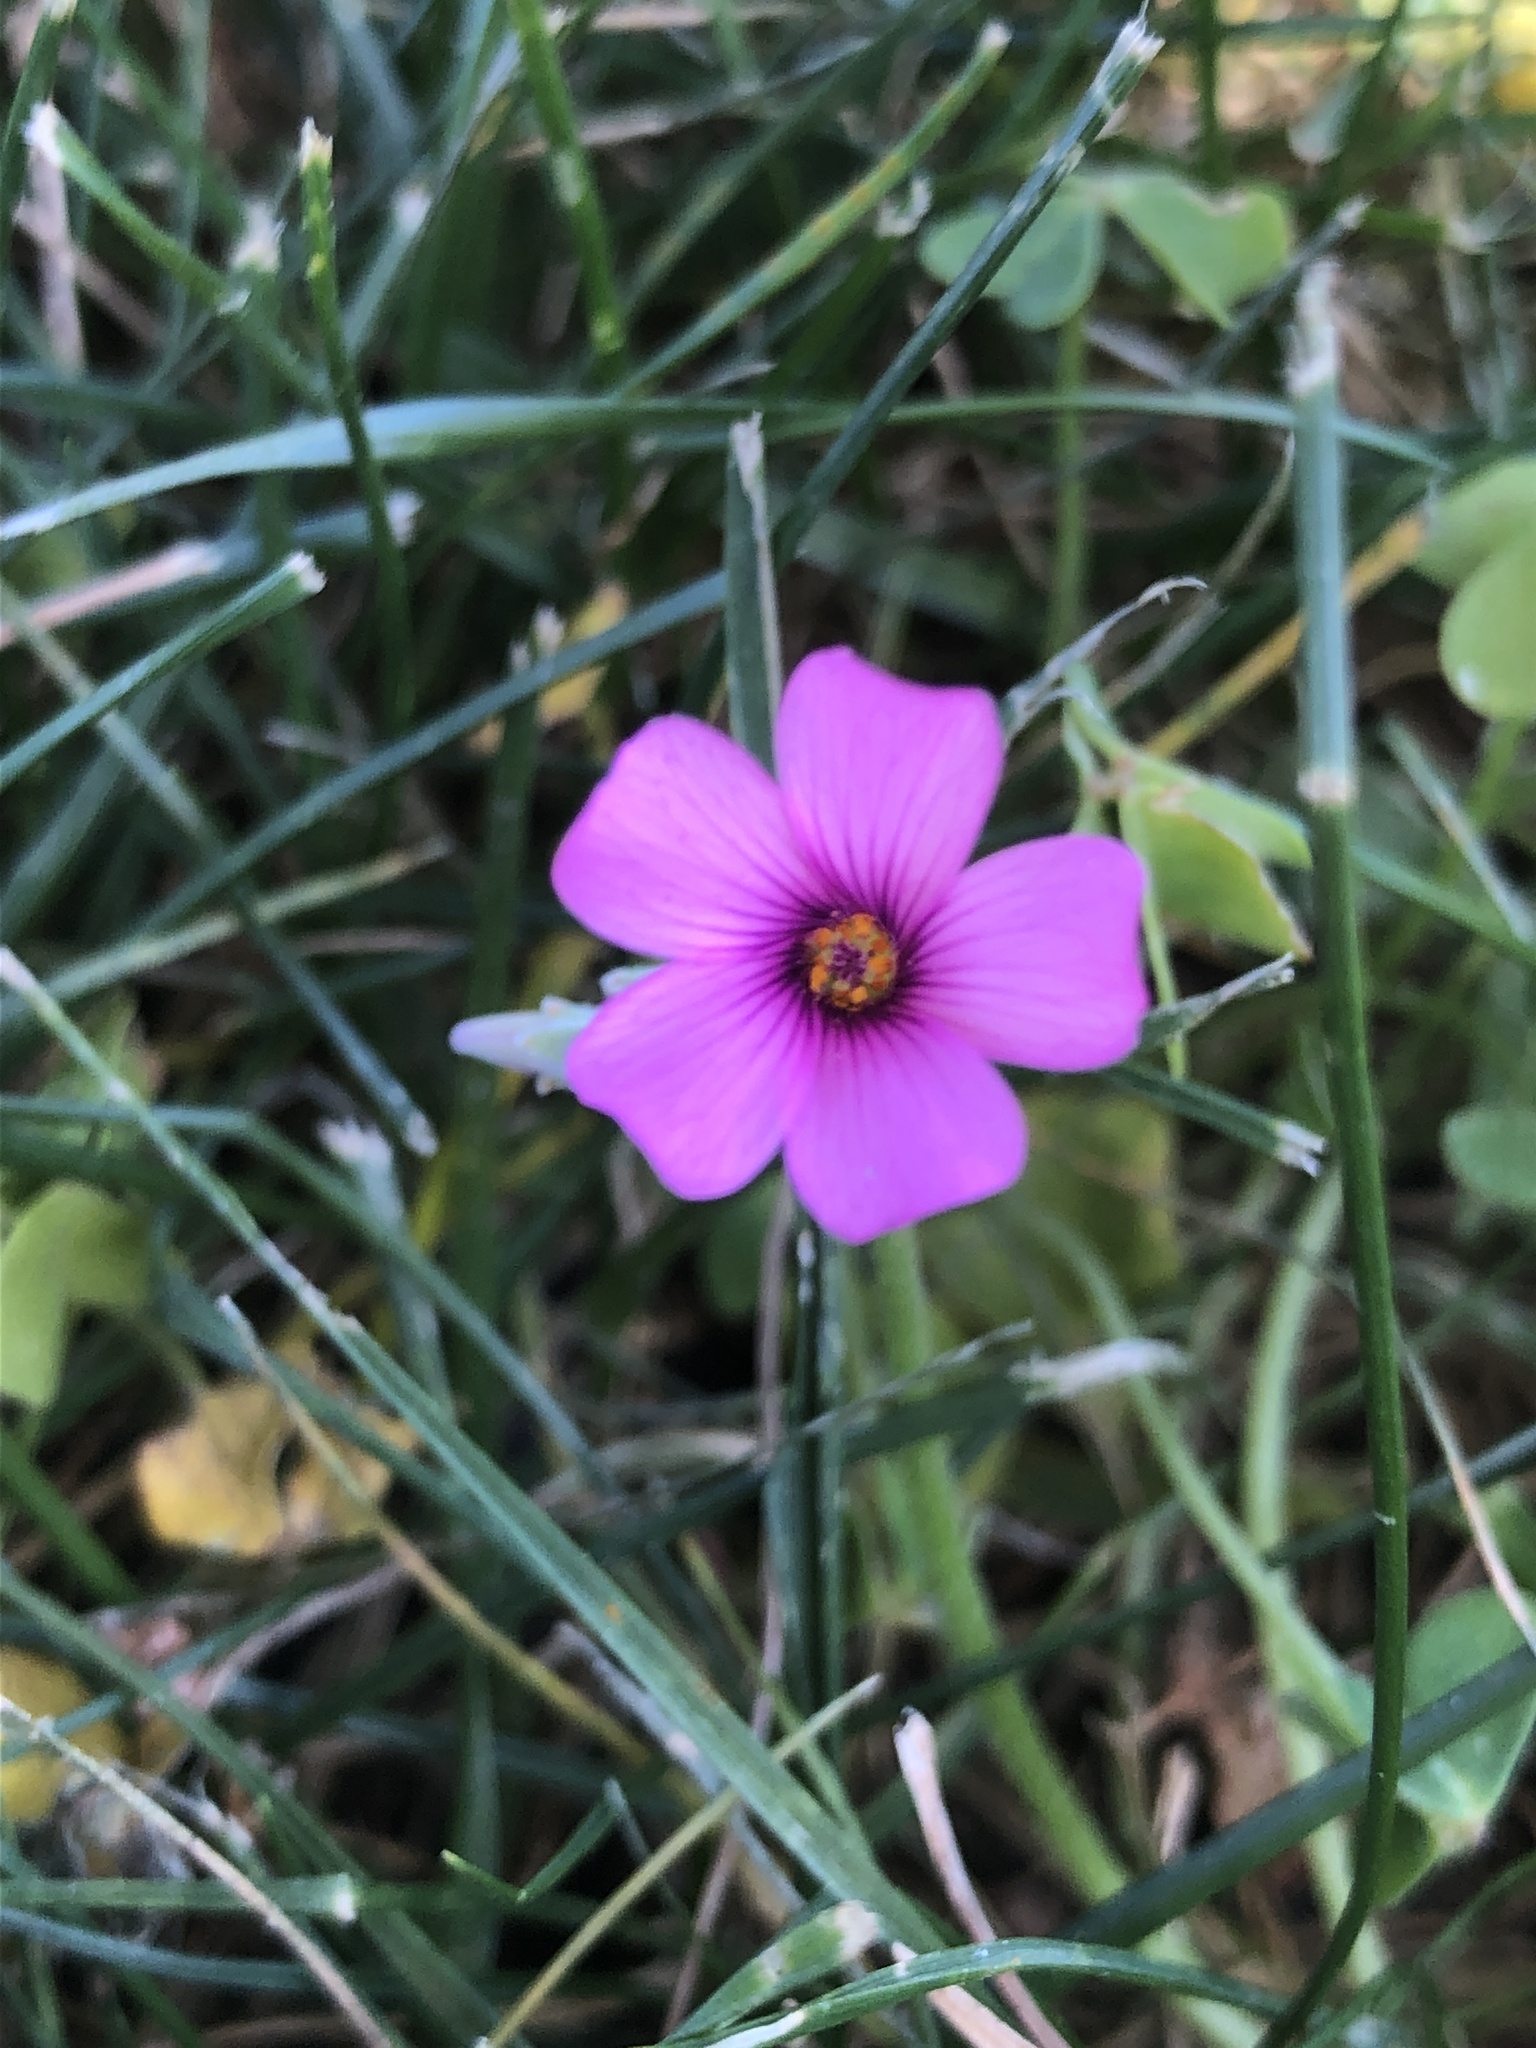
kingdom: Plantae
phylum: Tracheophyta
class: Magnoliopsida
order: Oxalidales
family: Oxalidaceae
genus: Oxalis
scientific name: Oxalis articulata
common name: Pink-sorrel
